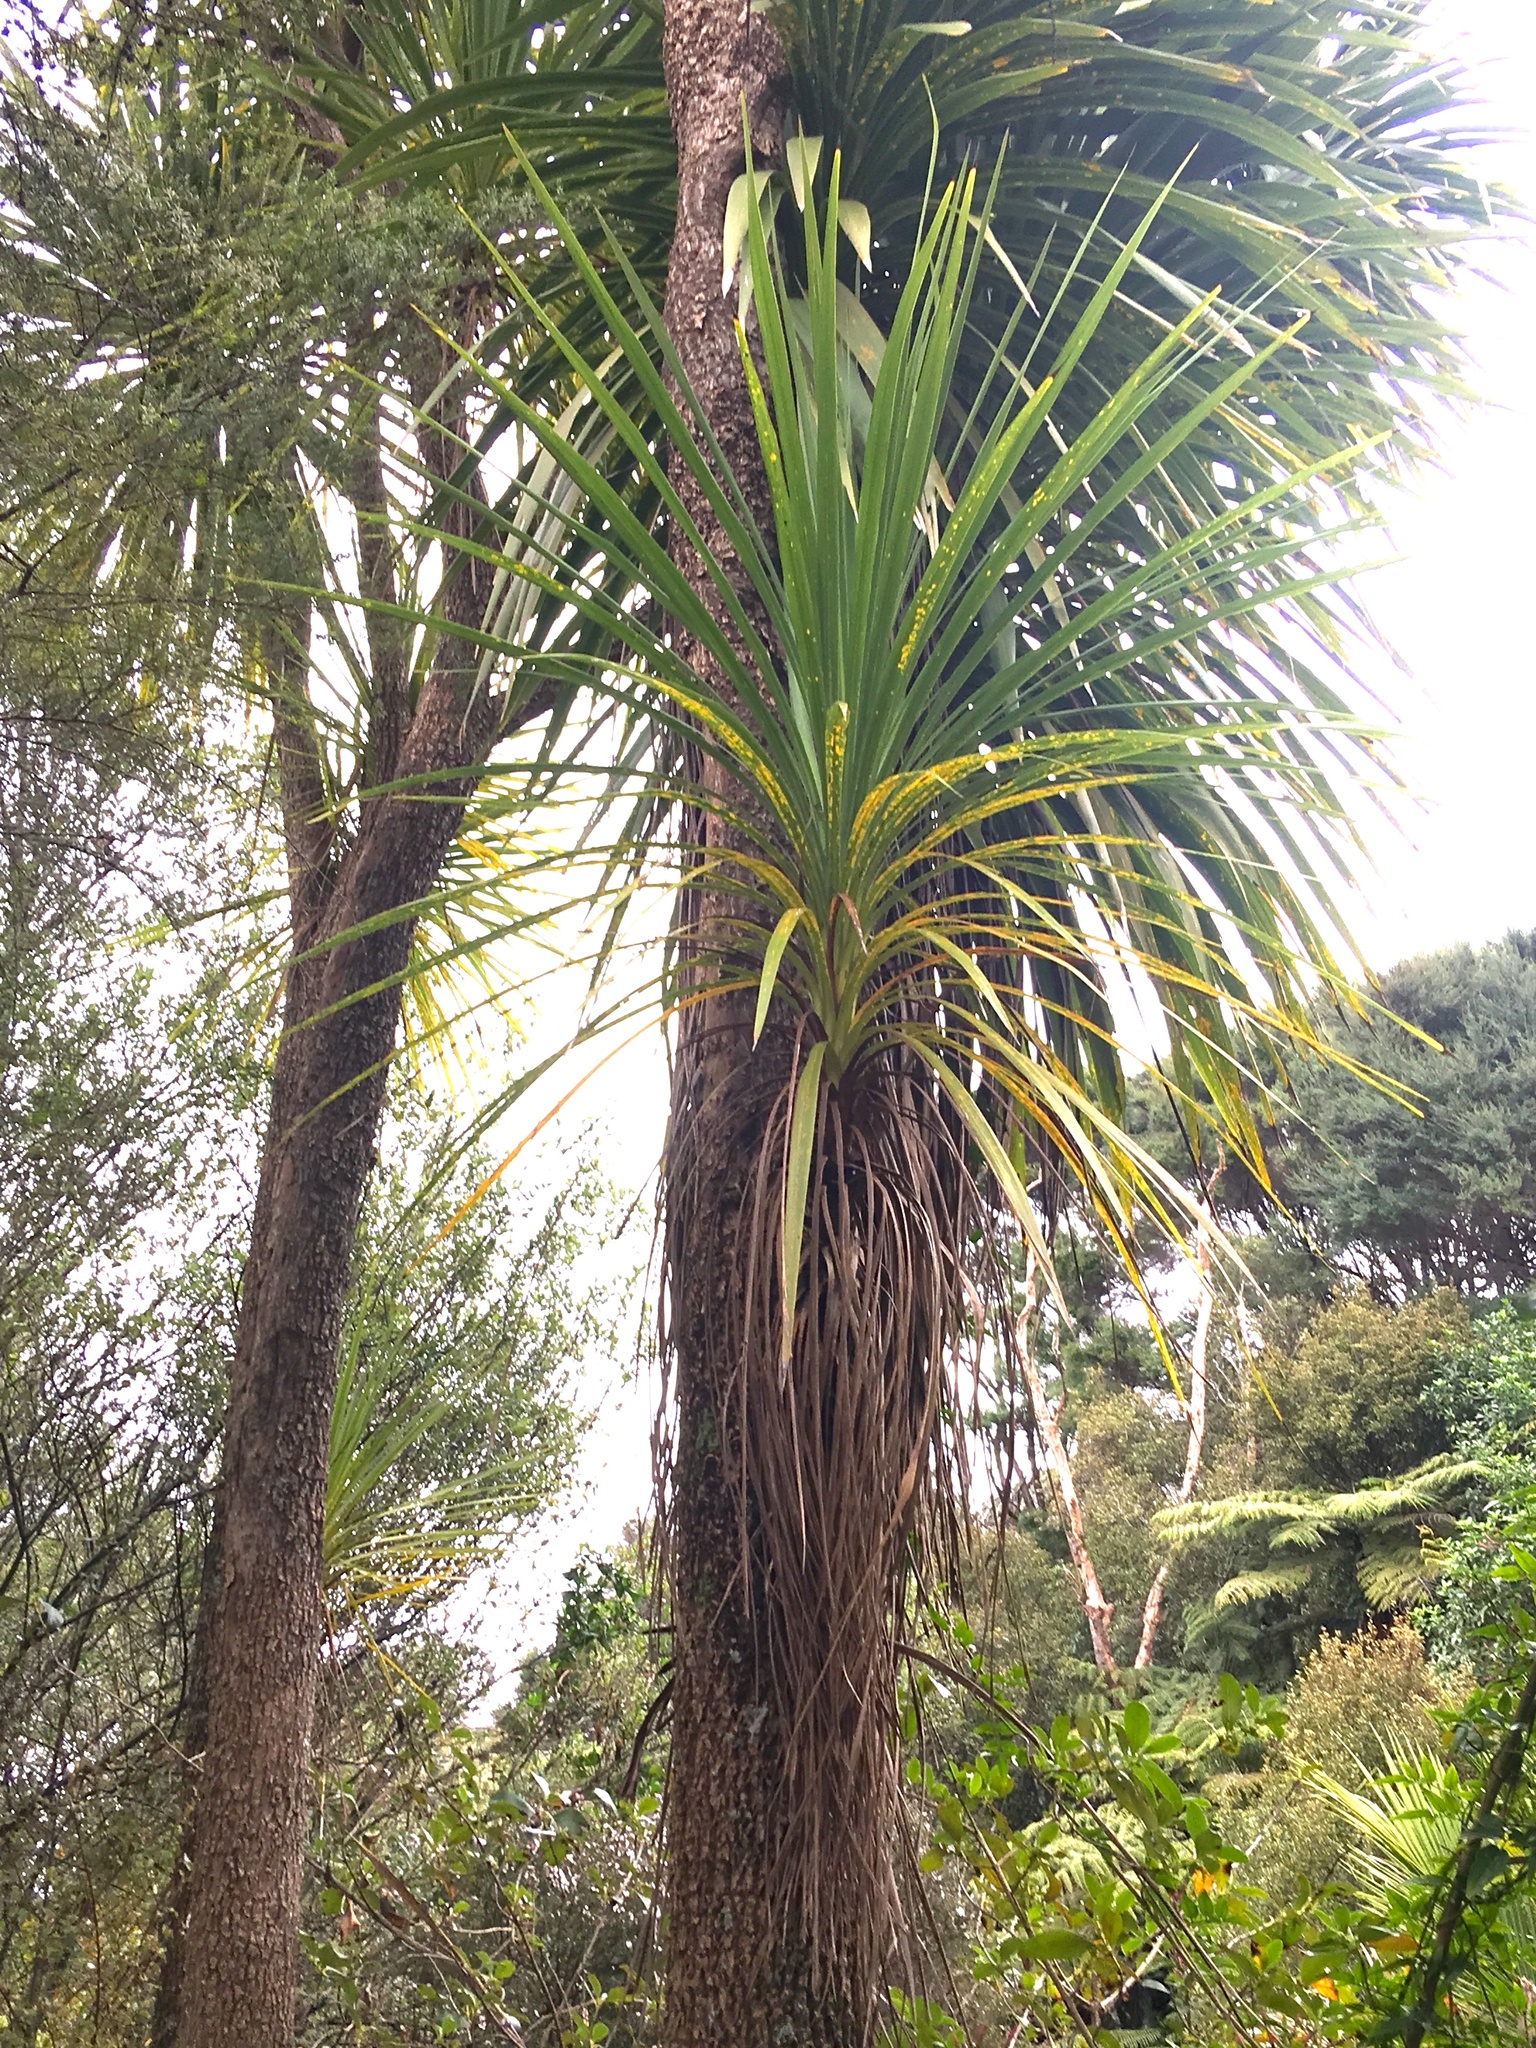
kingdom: Plantae
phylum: Tracheophyta
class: Liliopsida
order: Asparagales
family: Asparagaceae
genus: Cordyline
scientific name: Cordyline australis
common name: Cabbage-palm
